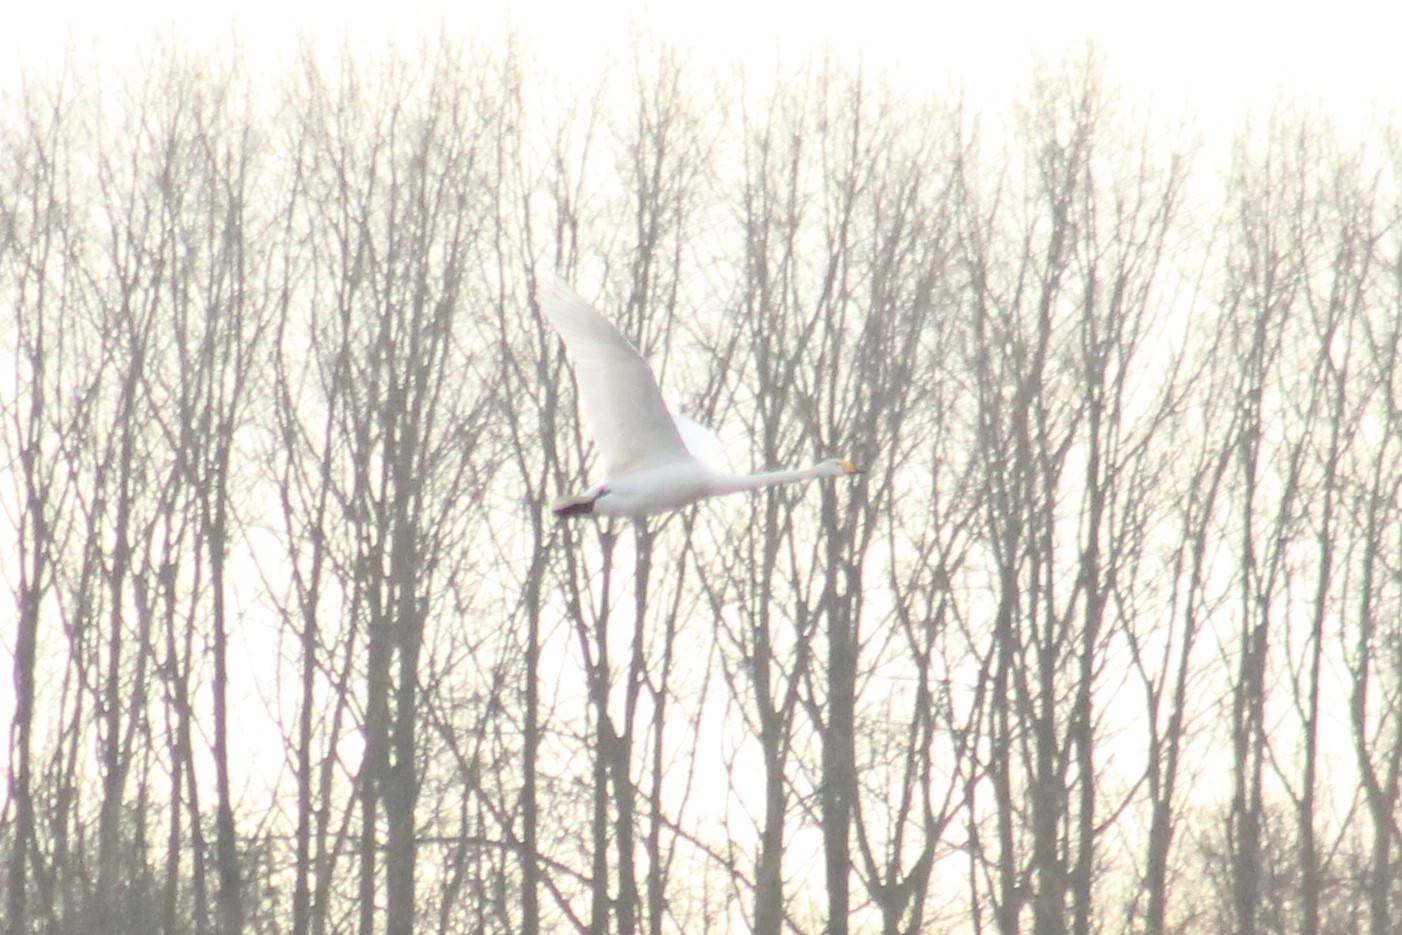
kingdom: Animalia
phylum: Chordata
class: Aves
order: Anseriformes
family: Anatidae
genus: Cygnus
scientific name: Cygnus cygnus
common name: Whooper swan
